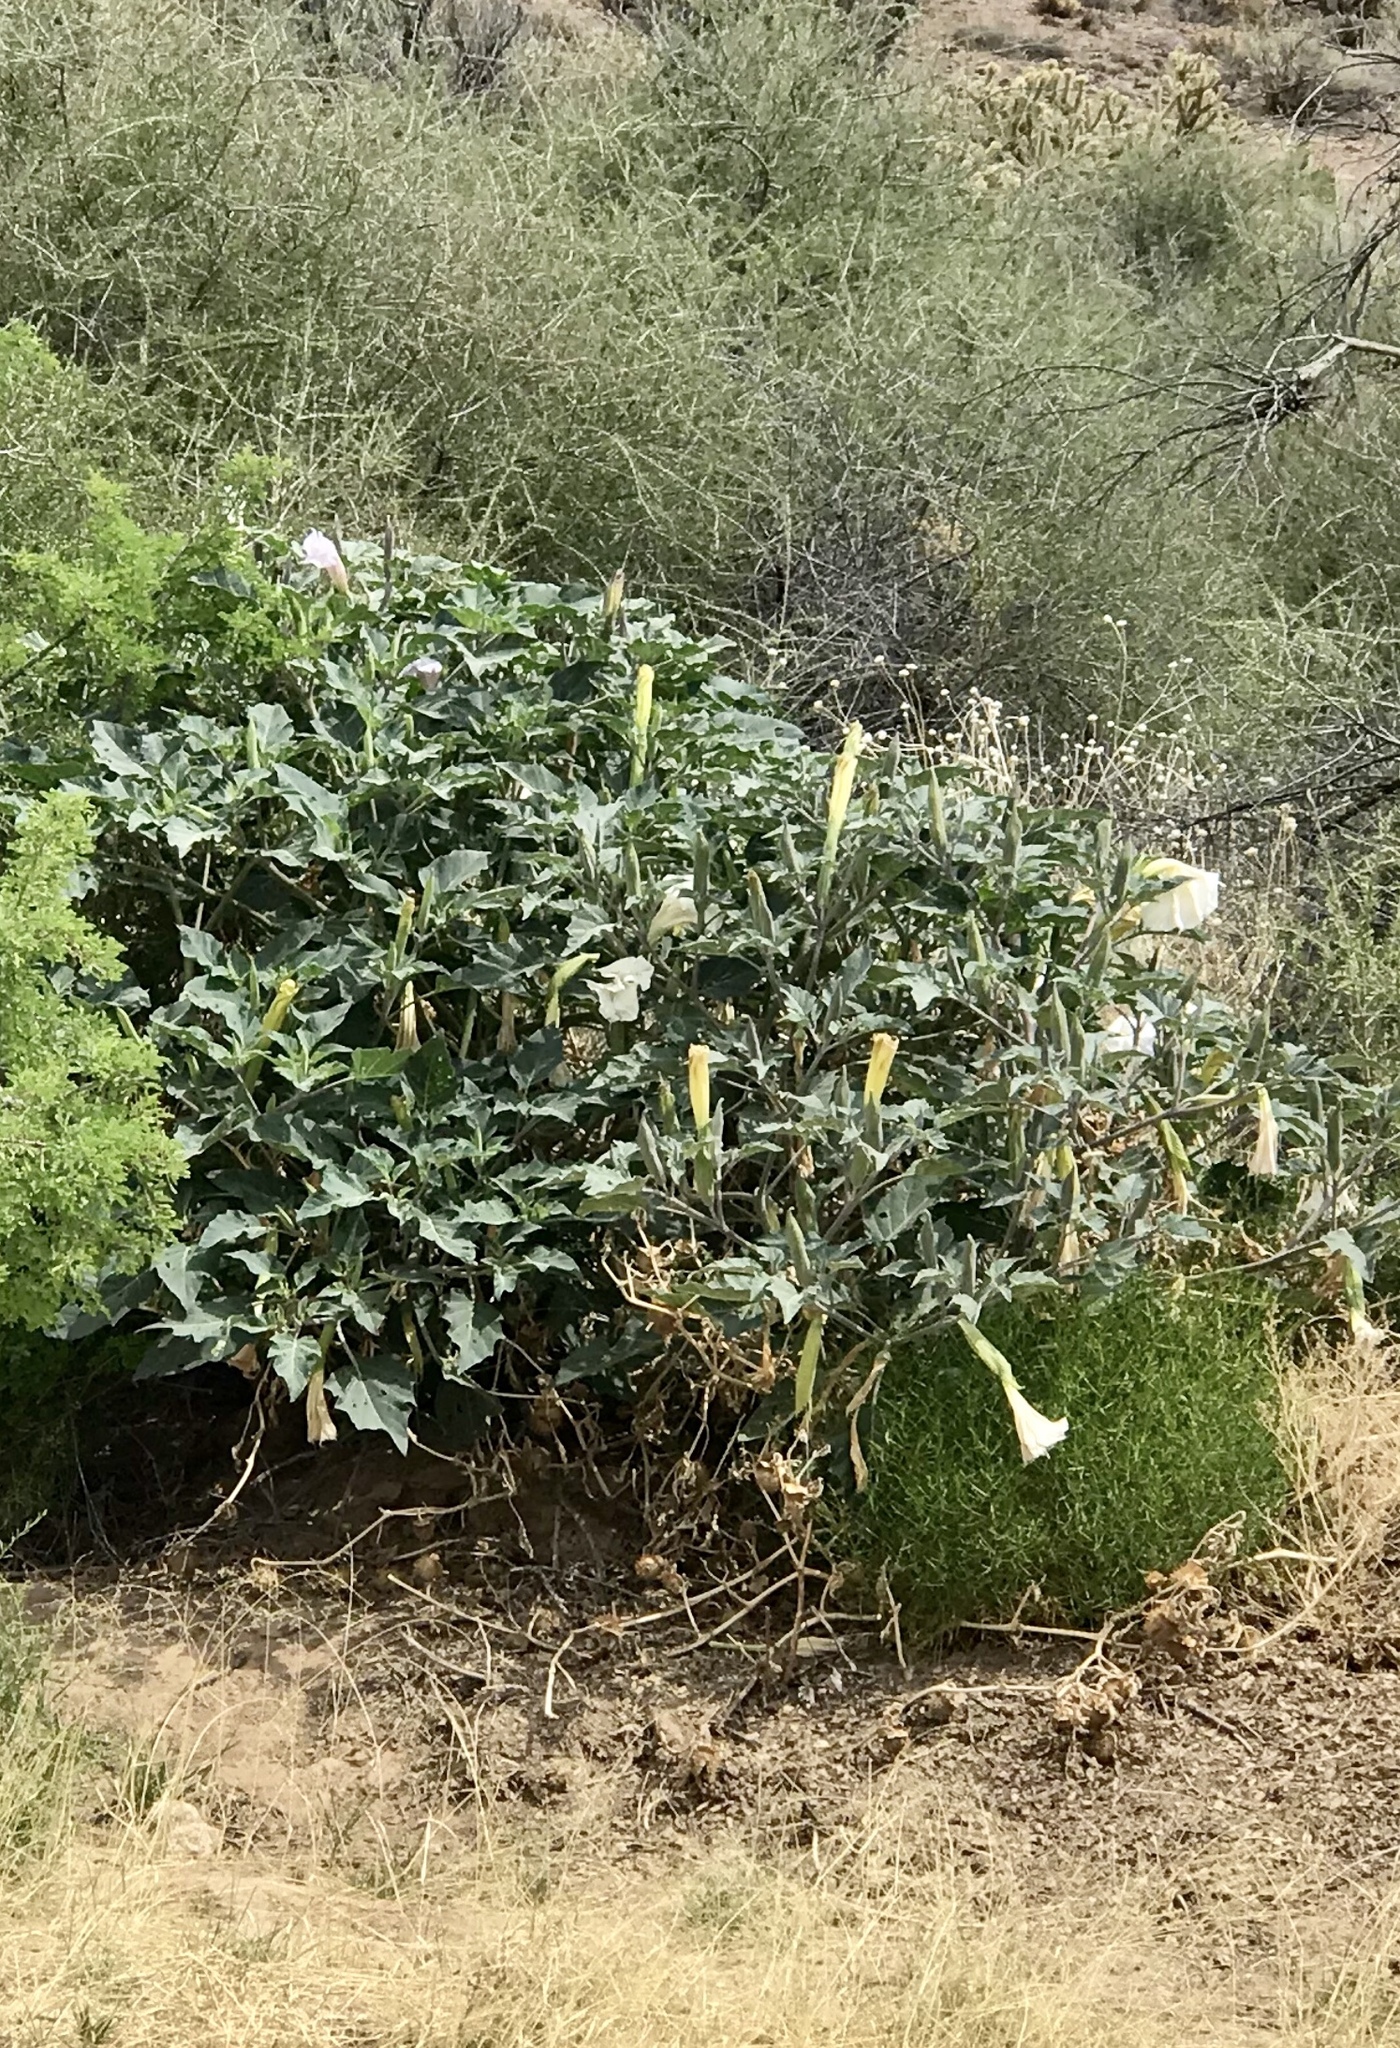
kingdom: Plantae
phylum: Tracheophyta
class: Magnoliopsida
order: Solanales
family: Solanaceae
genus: Datura
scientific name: Datura wrightii
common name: Sacred thorn-apple
